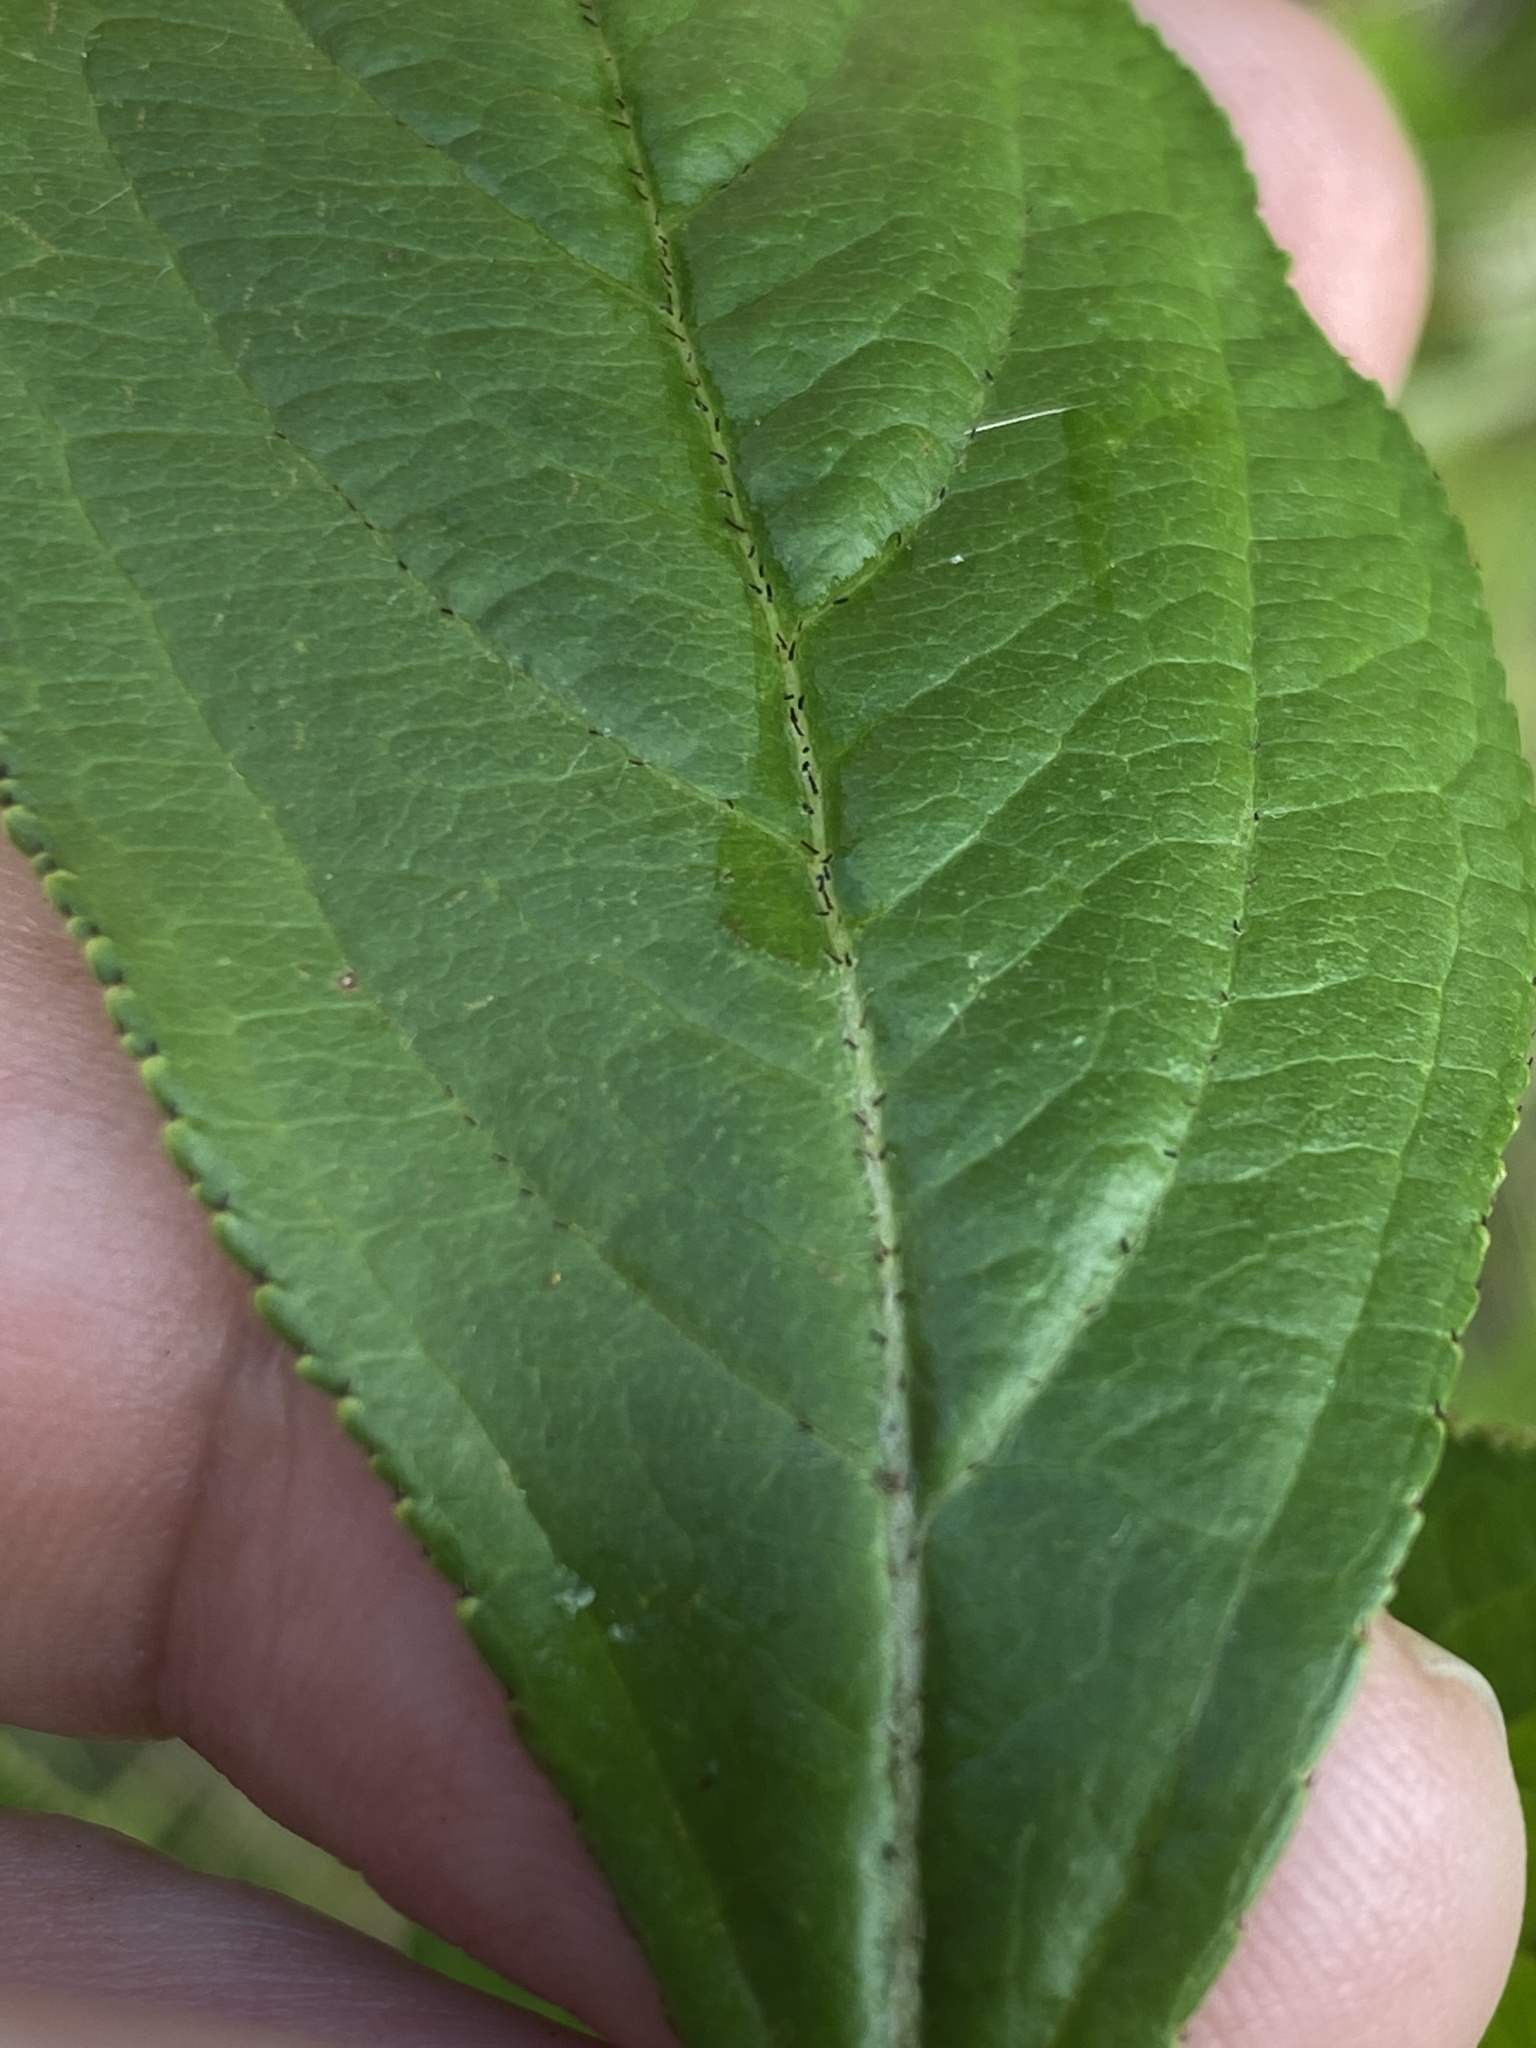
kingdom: Plantae
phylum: Tracheophyta
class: Magnoliopsida
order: Rosales
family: Rosaceae
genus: Aronia
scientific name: Aronia arbutifolia
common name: Red chokeberry
